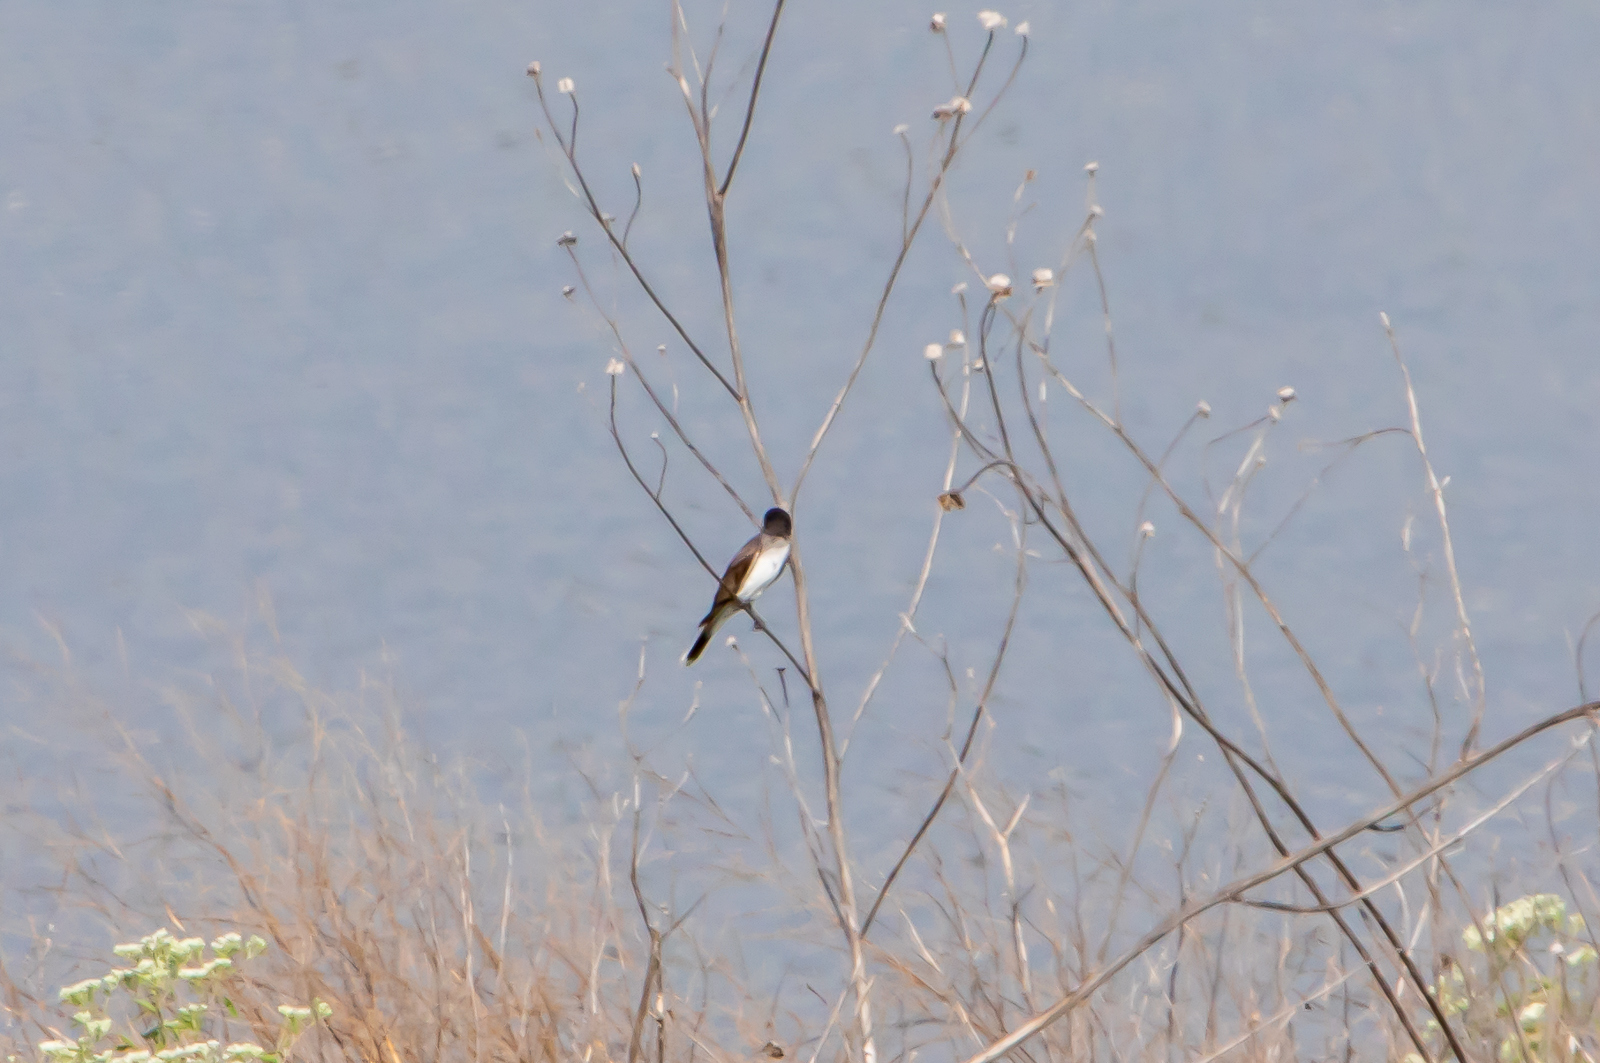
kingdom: Animalia
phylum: Chordata
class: Aves
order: Passeriformes
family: Tyrannidae
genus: Tyrannus
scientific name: Tyrannus tyrannus
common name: Eastern kingbird
